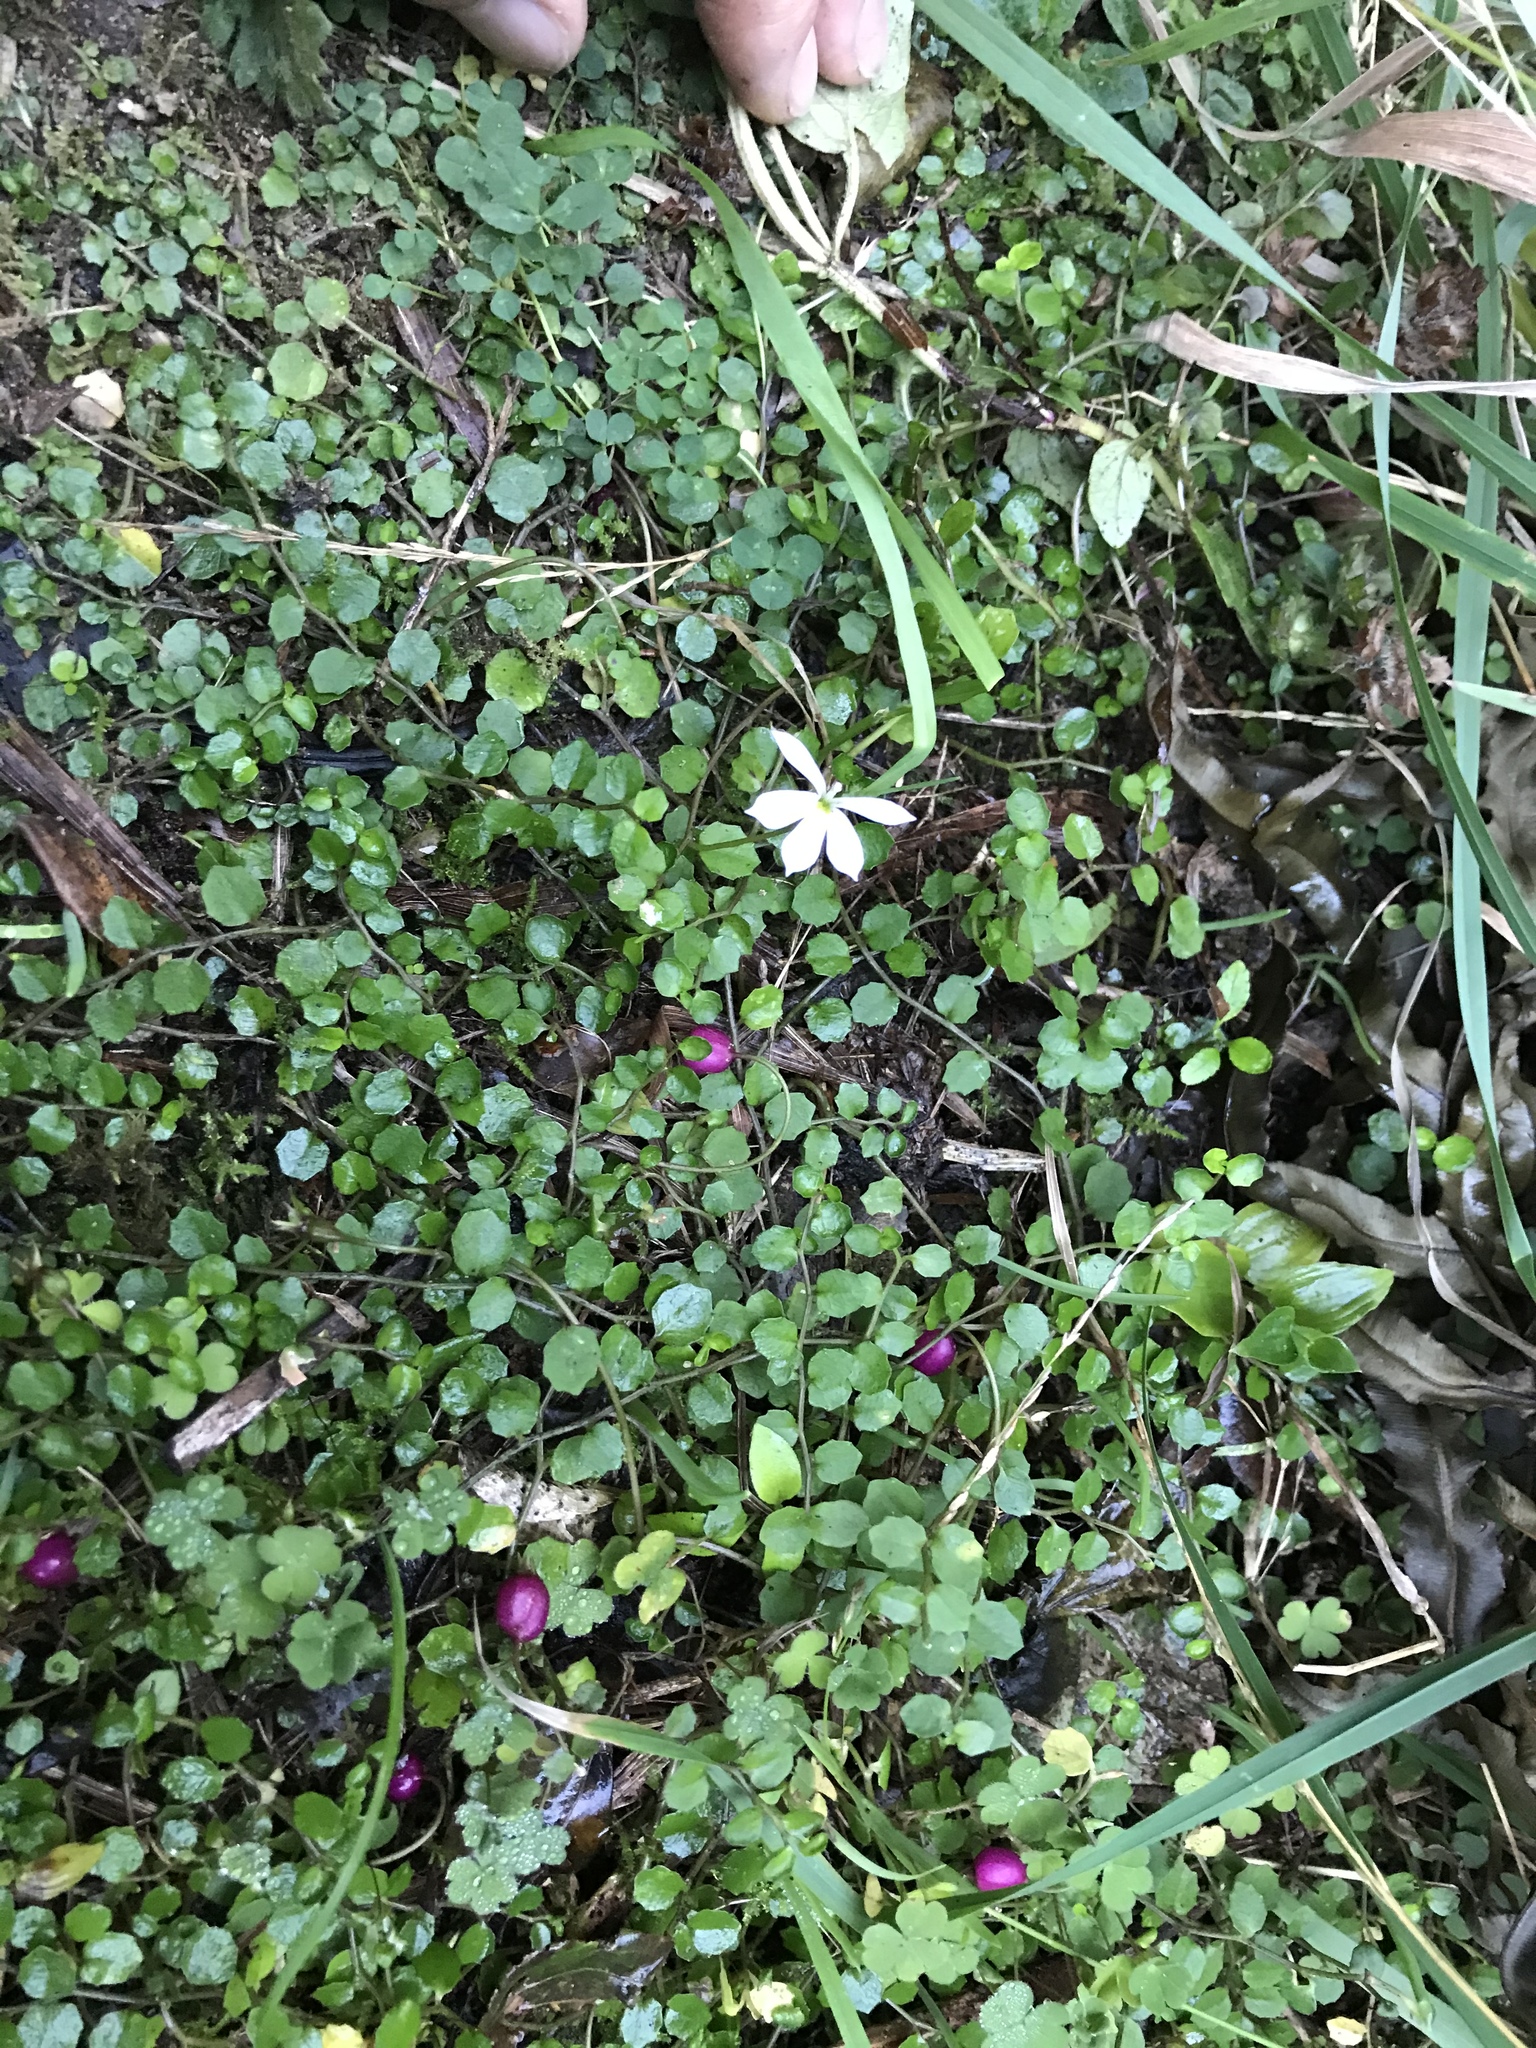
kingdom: Plantae
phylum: Tracheophyta
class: Magnoliopsida
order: Asterales
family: Campanulaceae
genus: Lobelia
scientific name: Lobelia angulata
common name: Lawn lobelia
